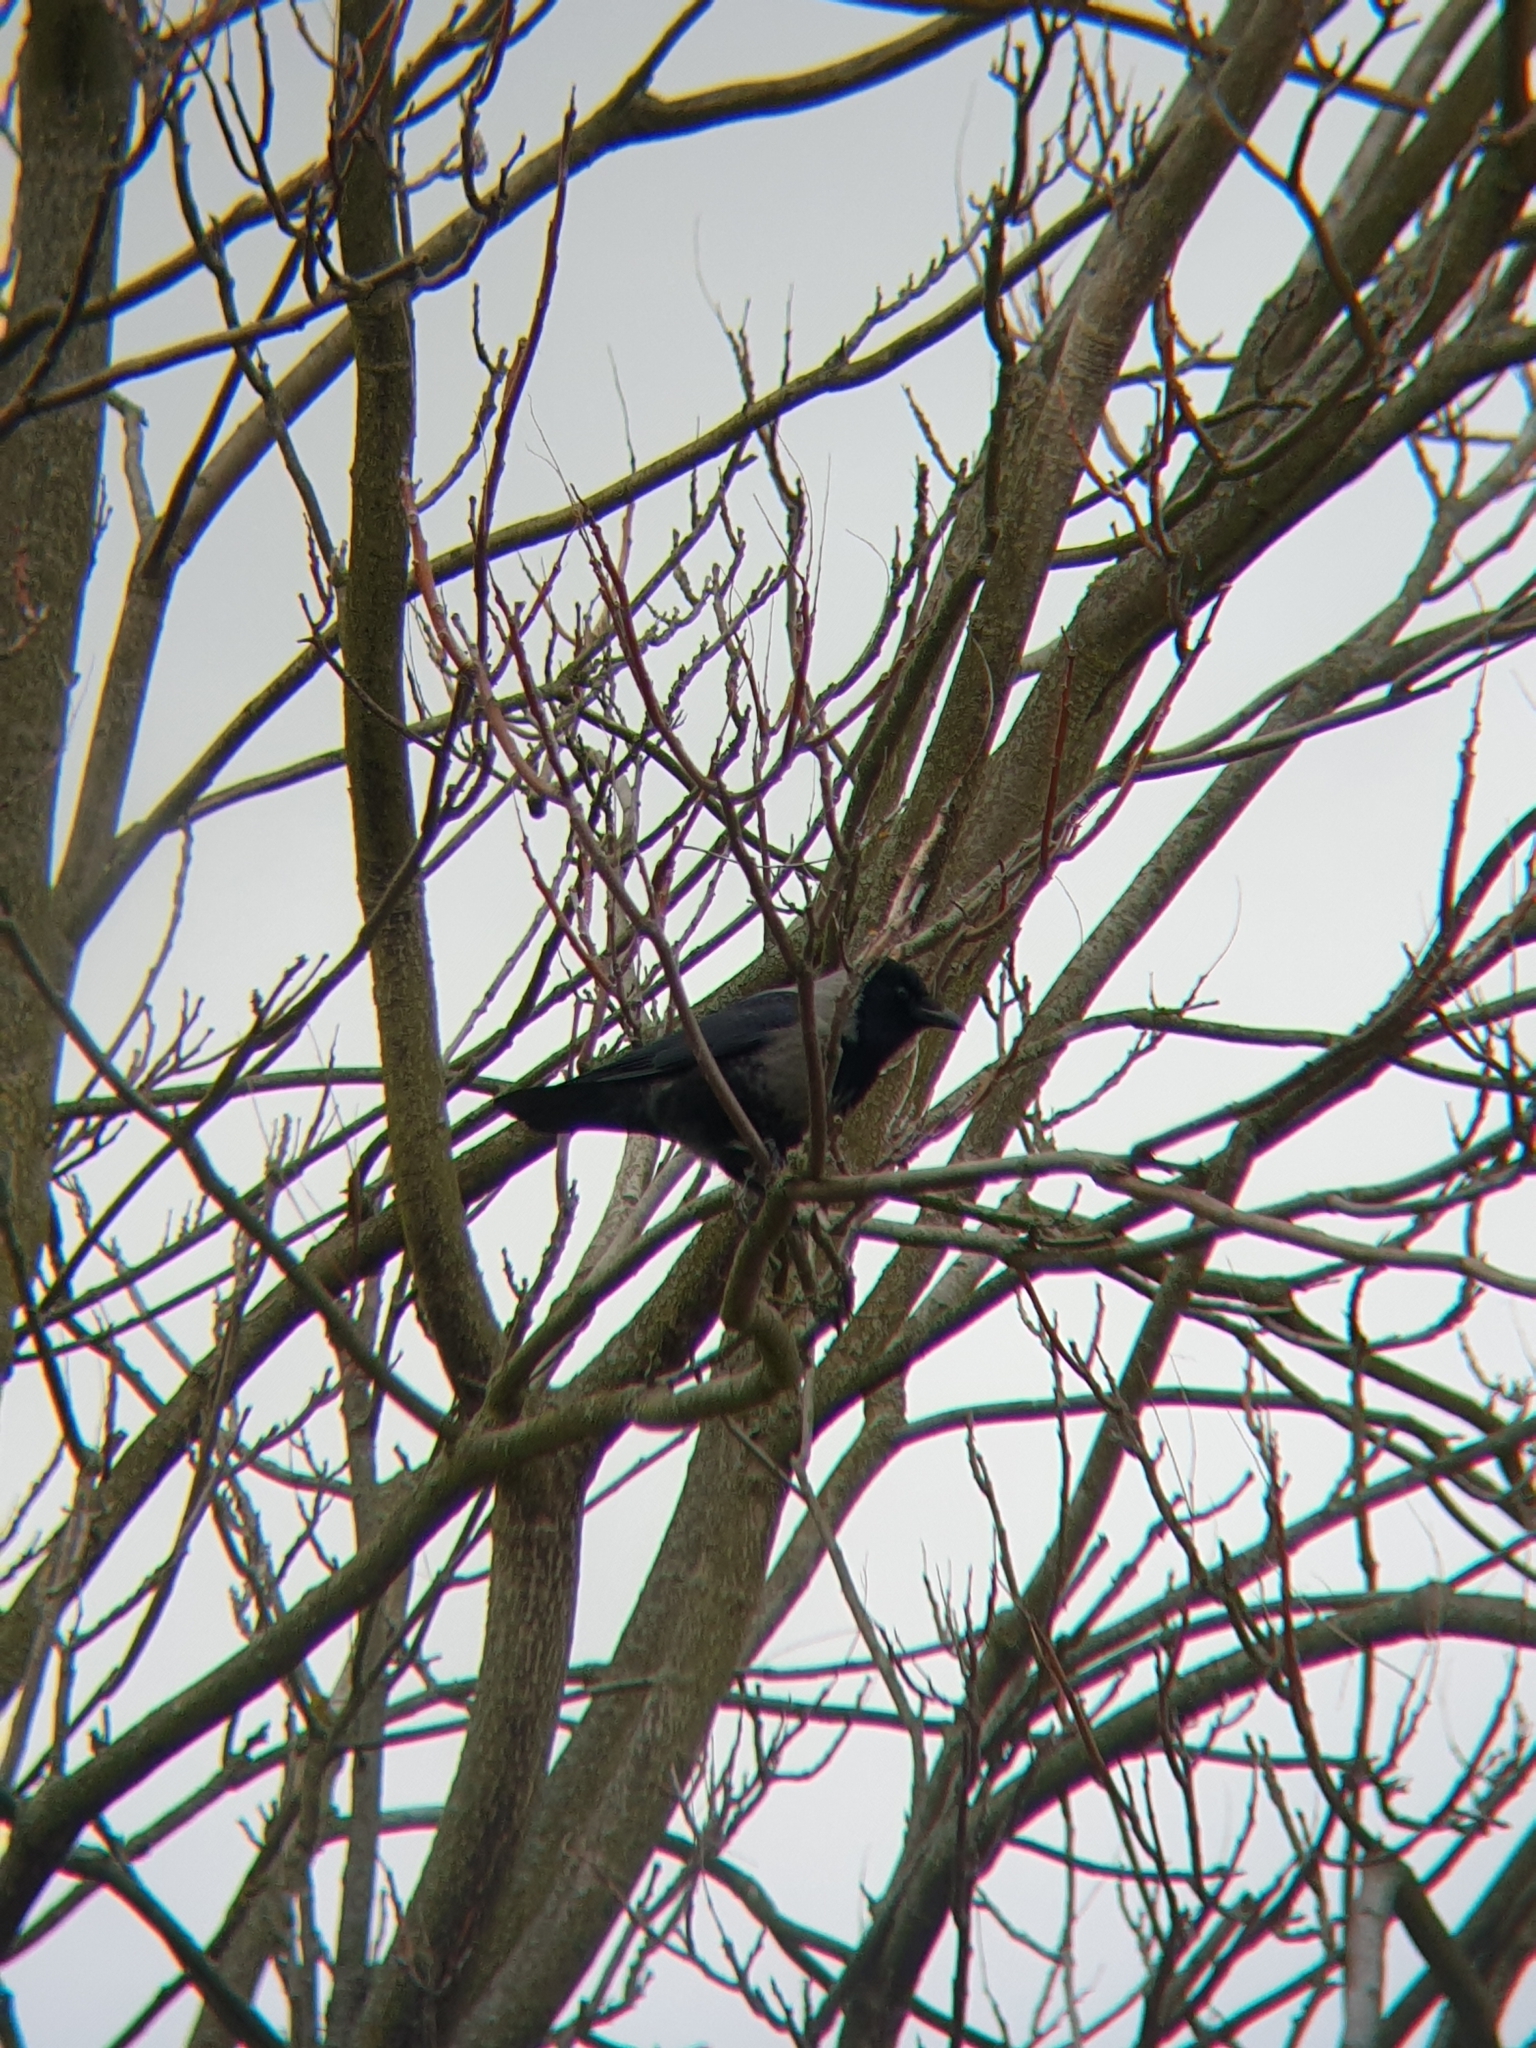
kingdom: Animalia
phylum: Chordata
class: Aves
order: Passeriformes
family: Corvidae
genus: Corvus
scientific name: Corvus
